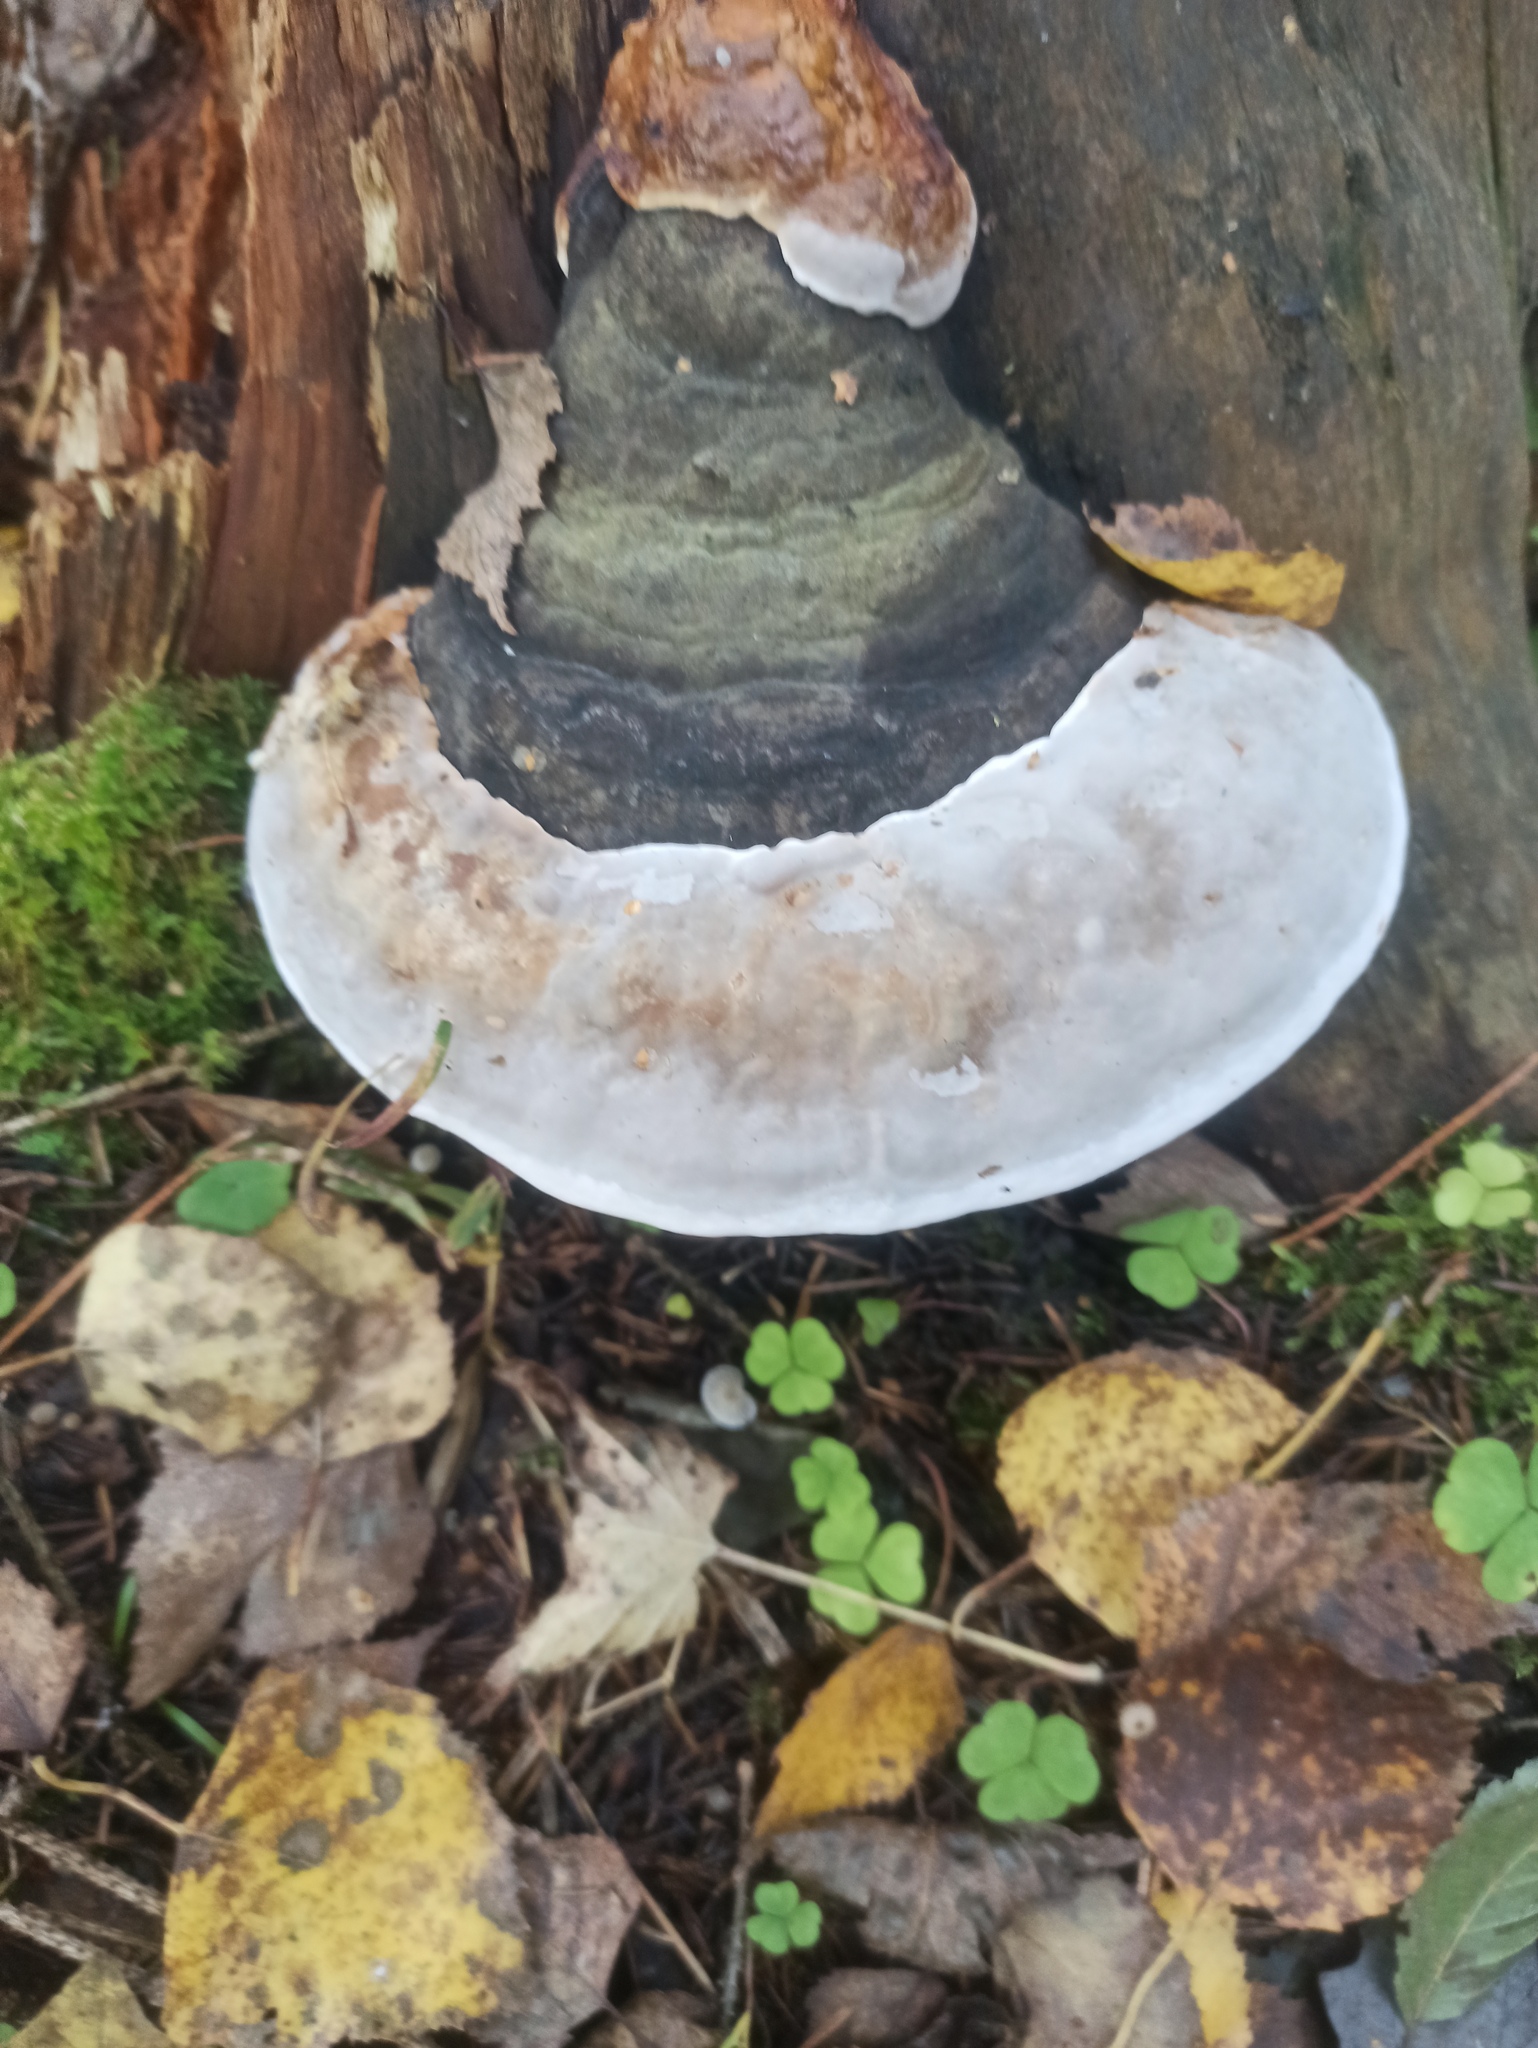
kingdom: Fungi
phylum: Basidiomycota
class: Agaricomycetes
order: Polyporales
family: Fomitopsidaceae
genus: Fomitopsis
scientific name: Fomitopsis pinicola
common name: Red-belted bracket
